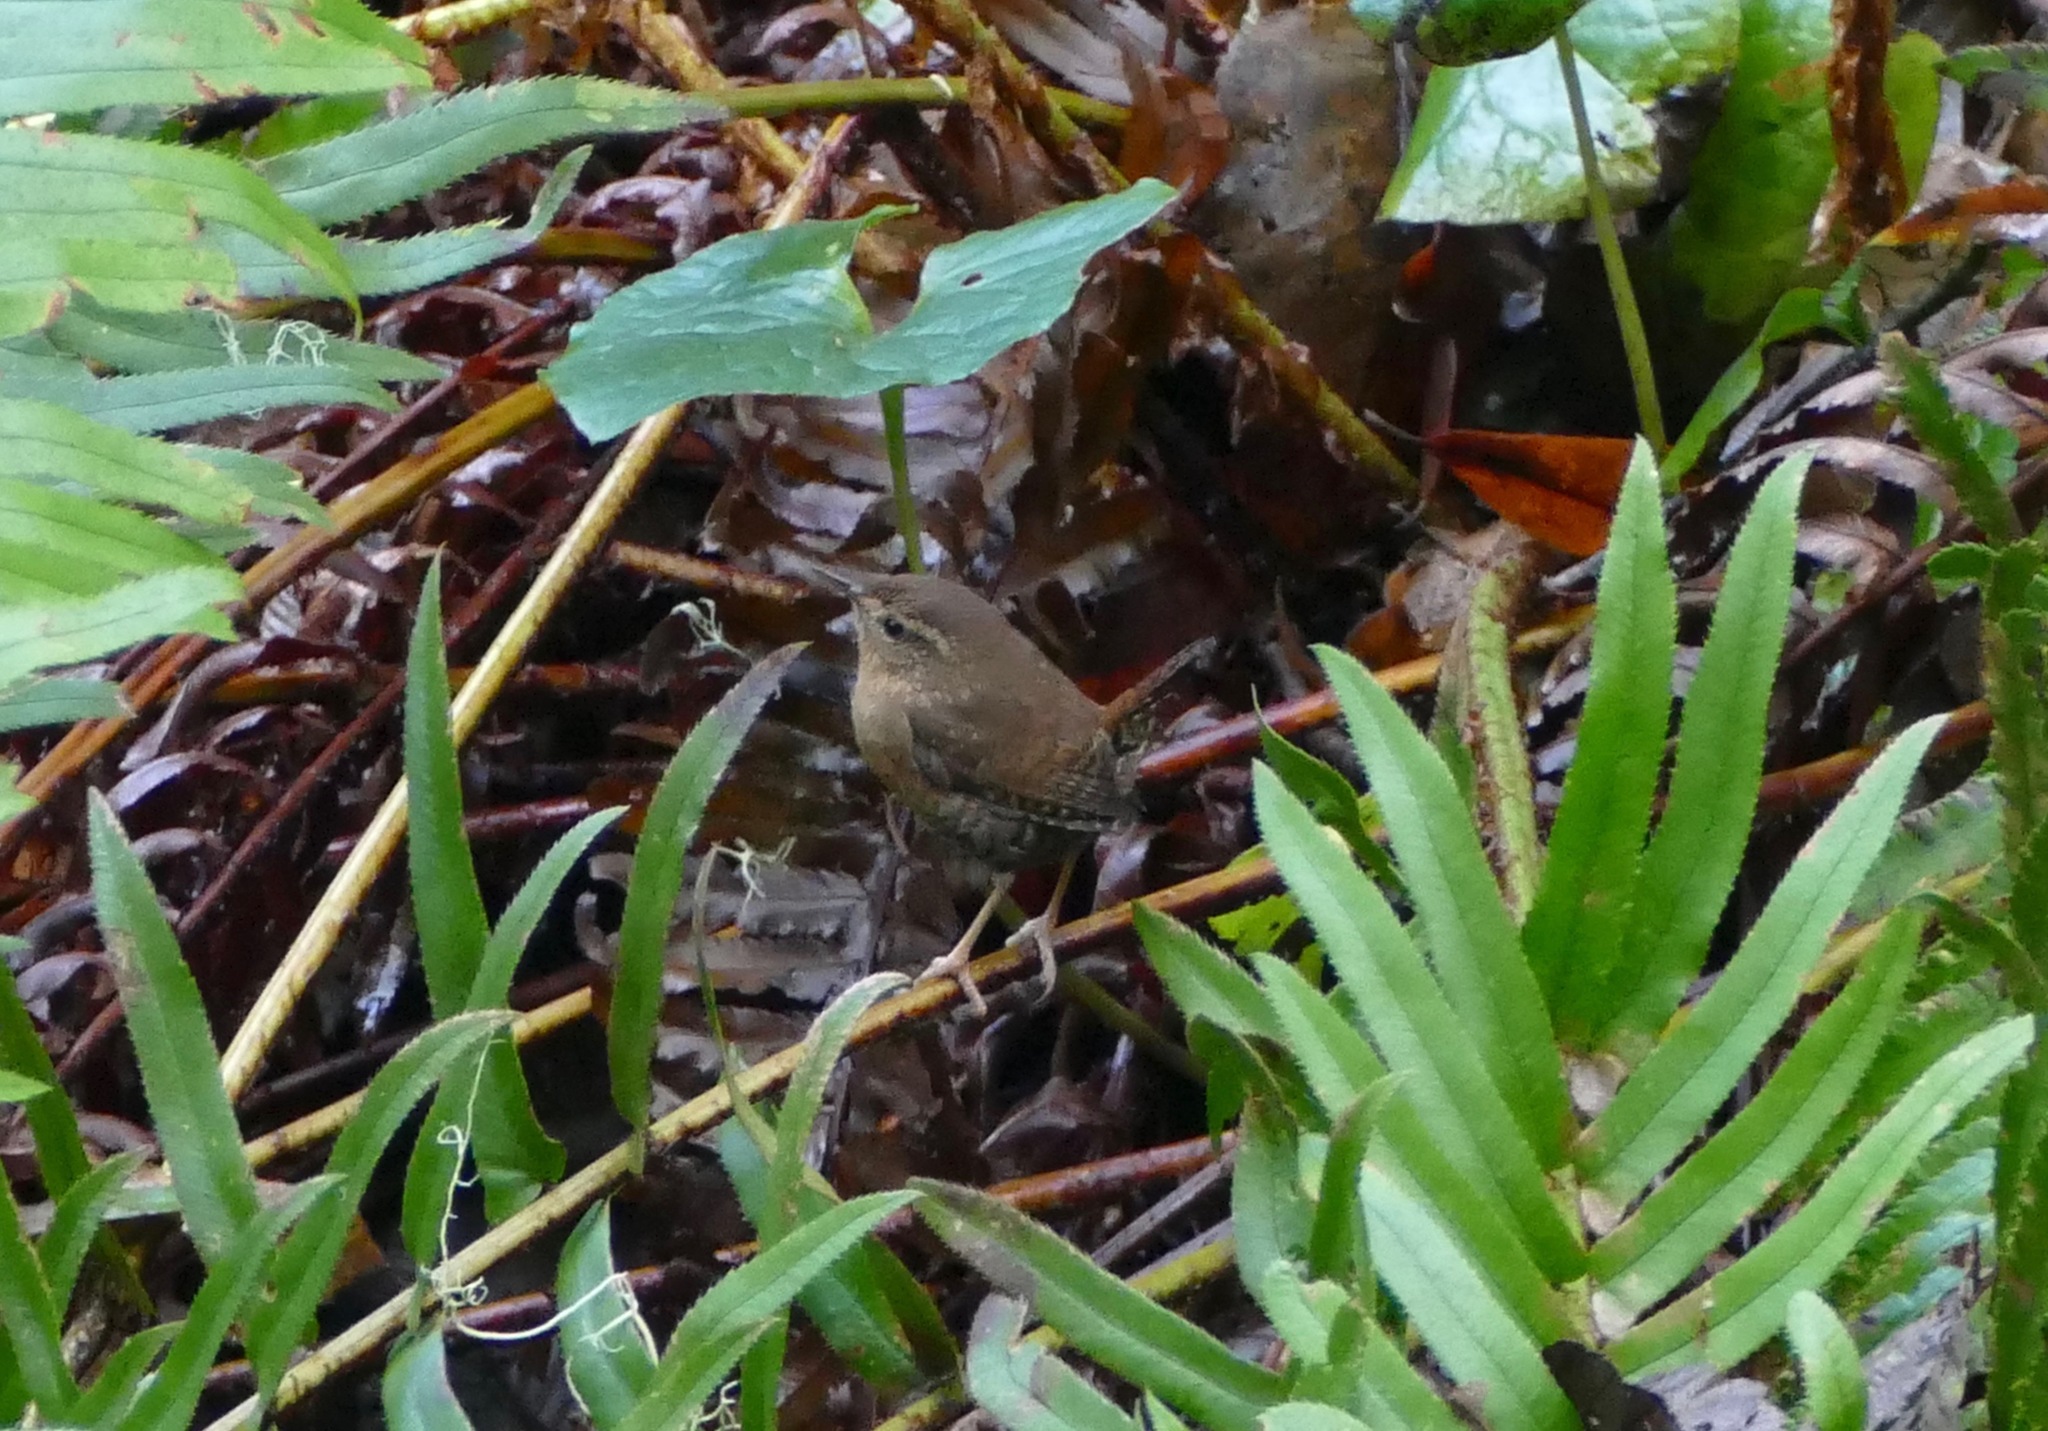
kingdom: Animalia
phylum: Chordata
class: Aves
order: Passeriformes
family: Troglodytidae
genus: Troglodytes
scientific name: Troglodytes pacificus
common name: Pacific wren
